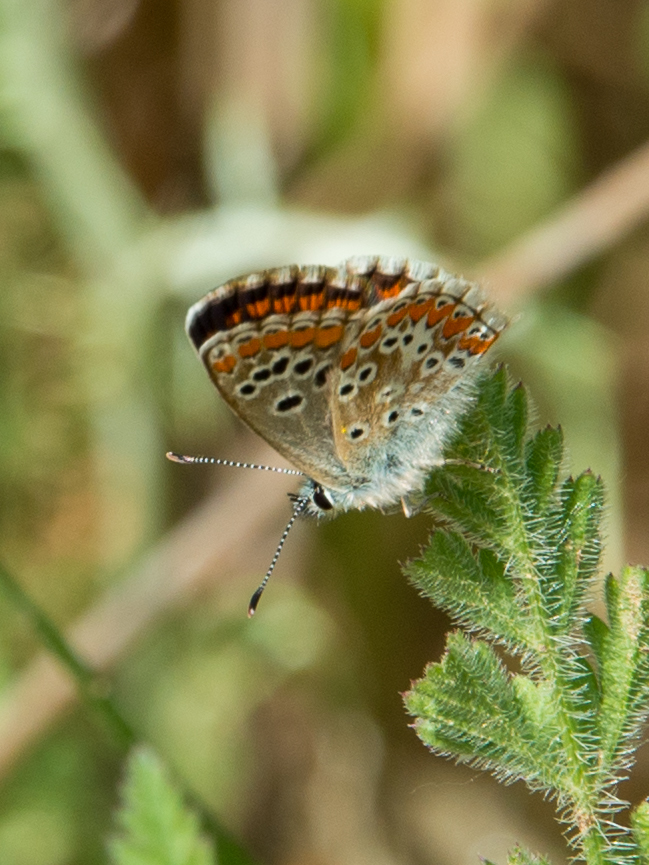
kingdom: Animalia
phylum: Arthropoda
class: Insecta
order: Lepidoptera
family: Lycaenidae
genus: Aricia
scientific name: Aricia cramera
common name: Eschscholtz´s brown  argus
